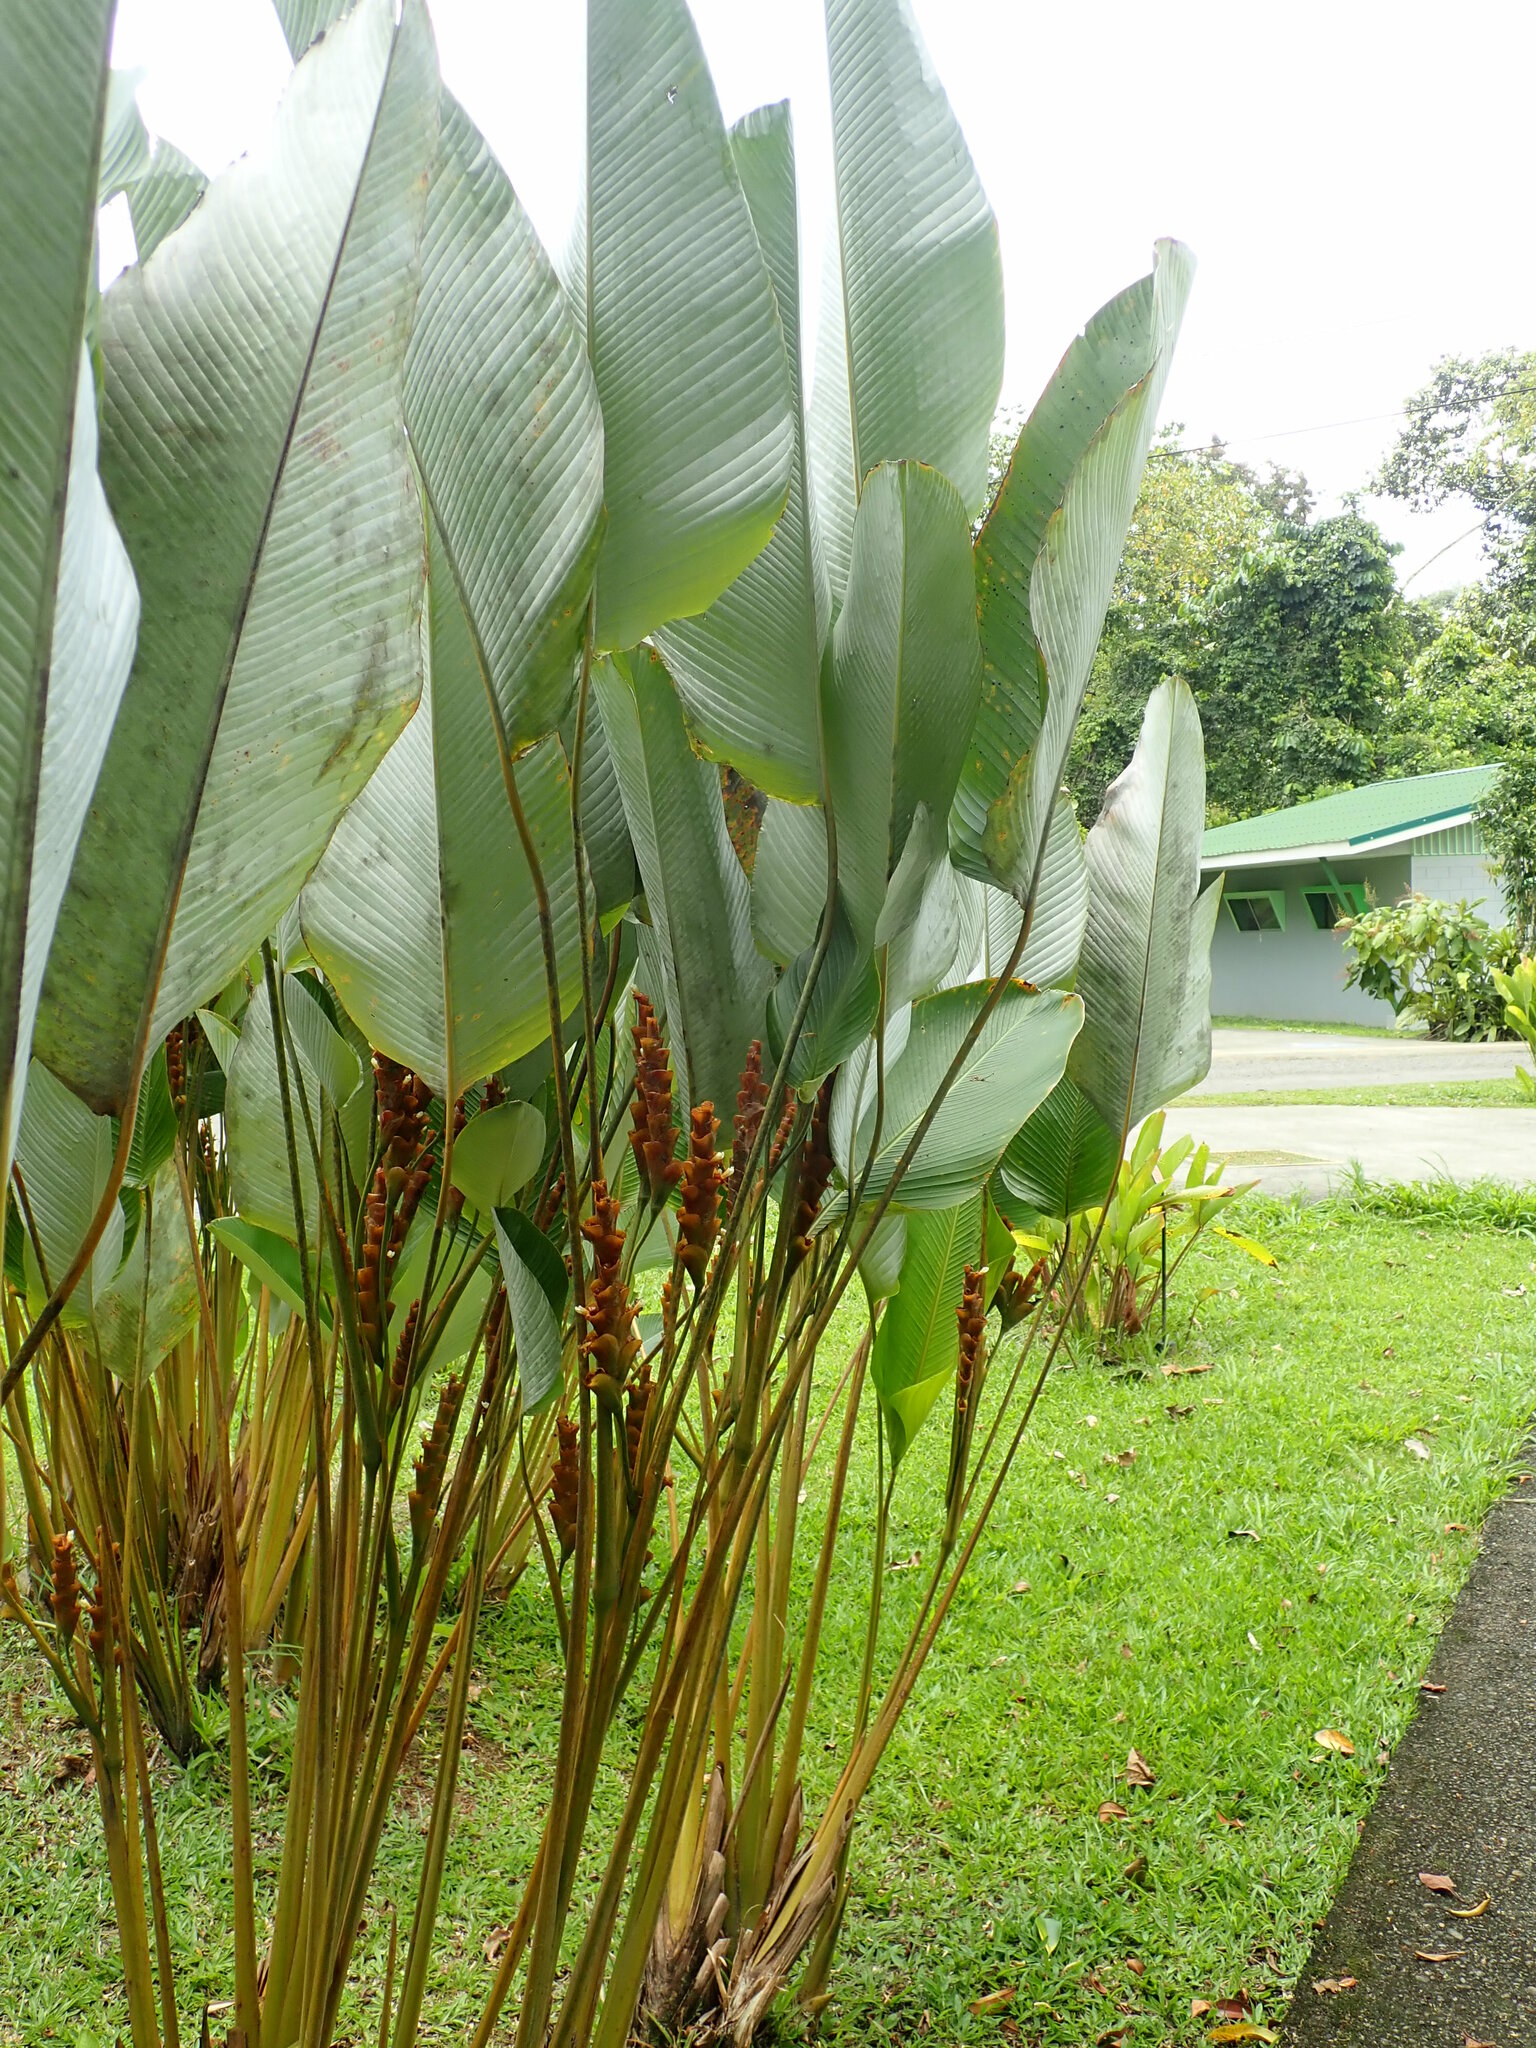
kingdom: Plantae
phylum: Tracheophyta
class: Liliopsida
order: Zingiberales
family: Marantaceae
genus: Calathea
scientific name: Calathea lutea
